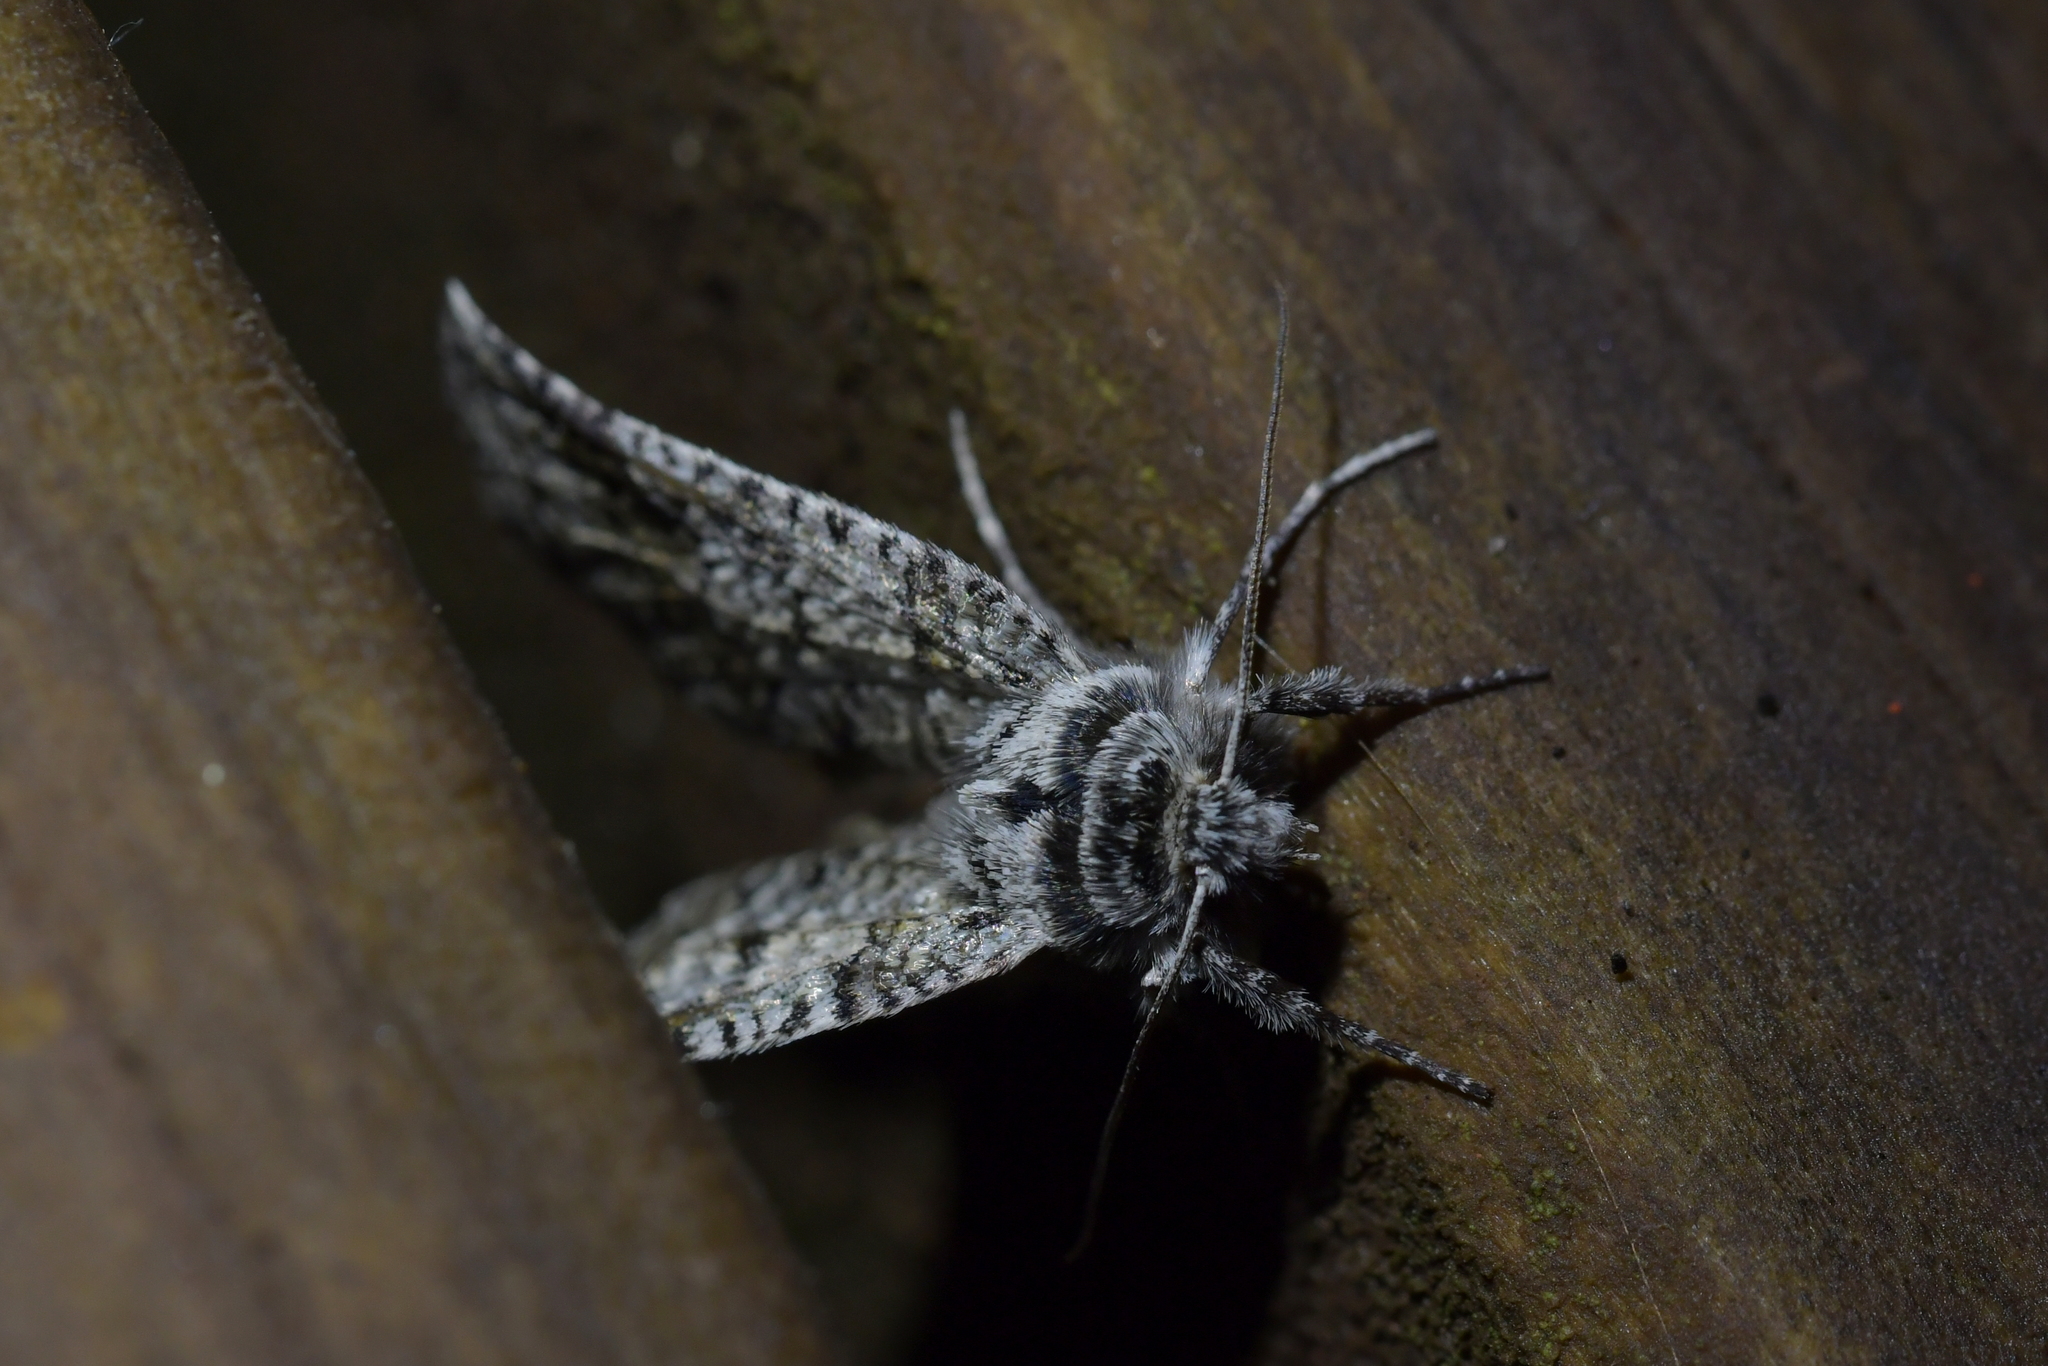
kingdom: Animalia
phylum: Arthropoda
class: Insecta
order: Lepidoptera
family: Geometridae
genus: Declana
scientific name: Declana
